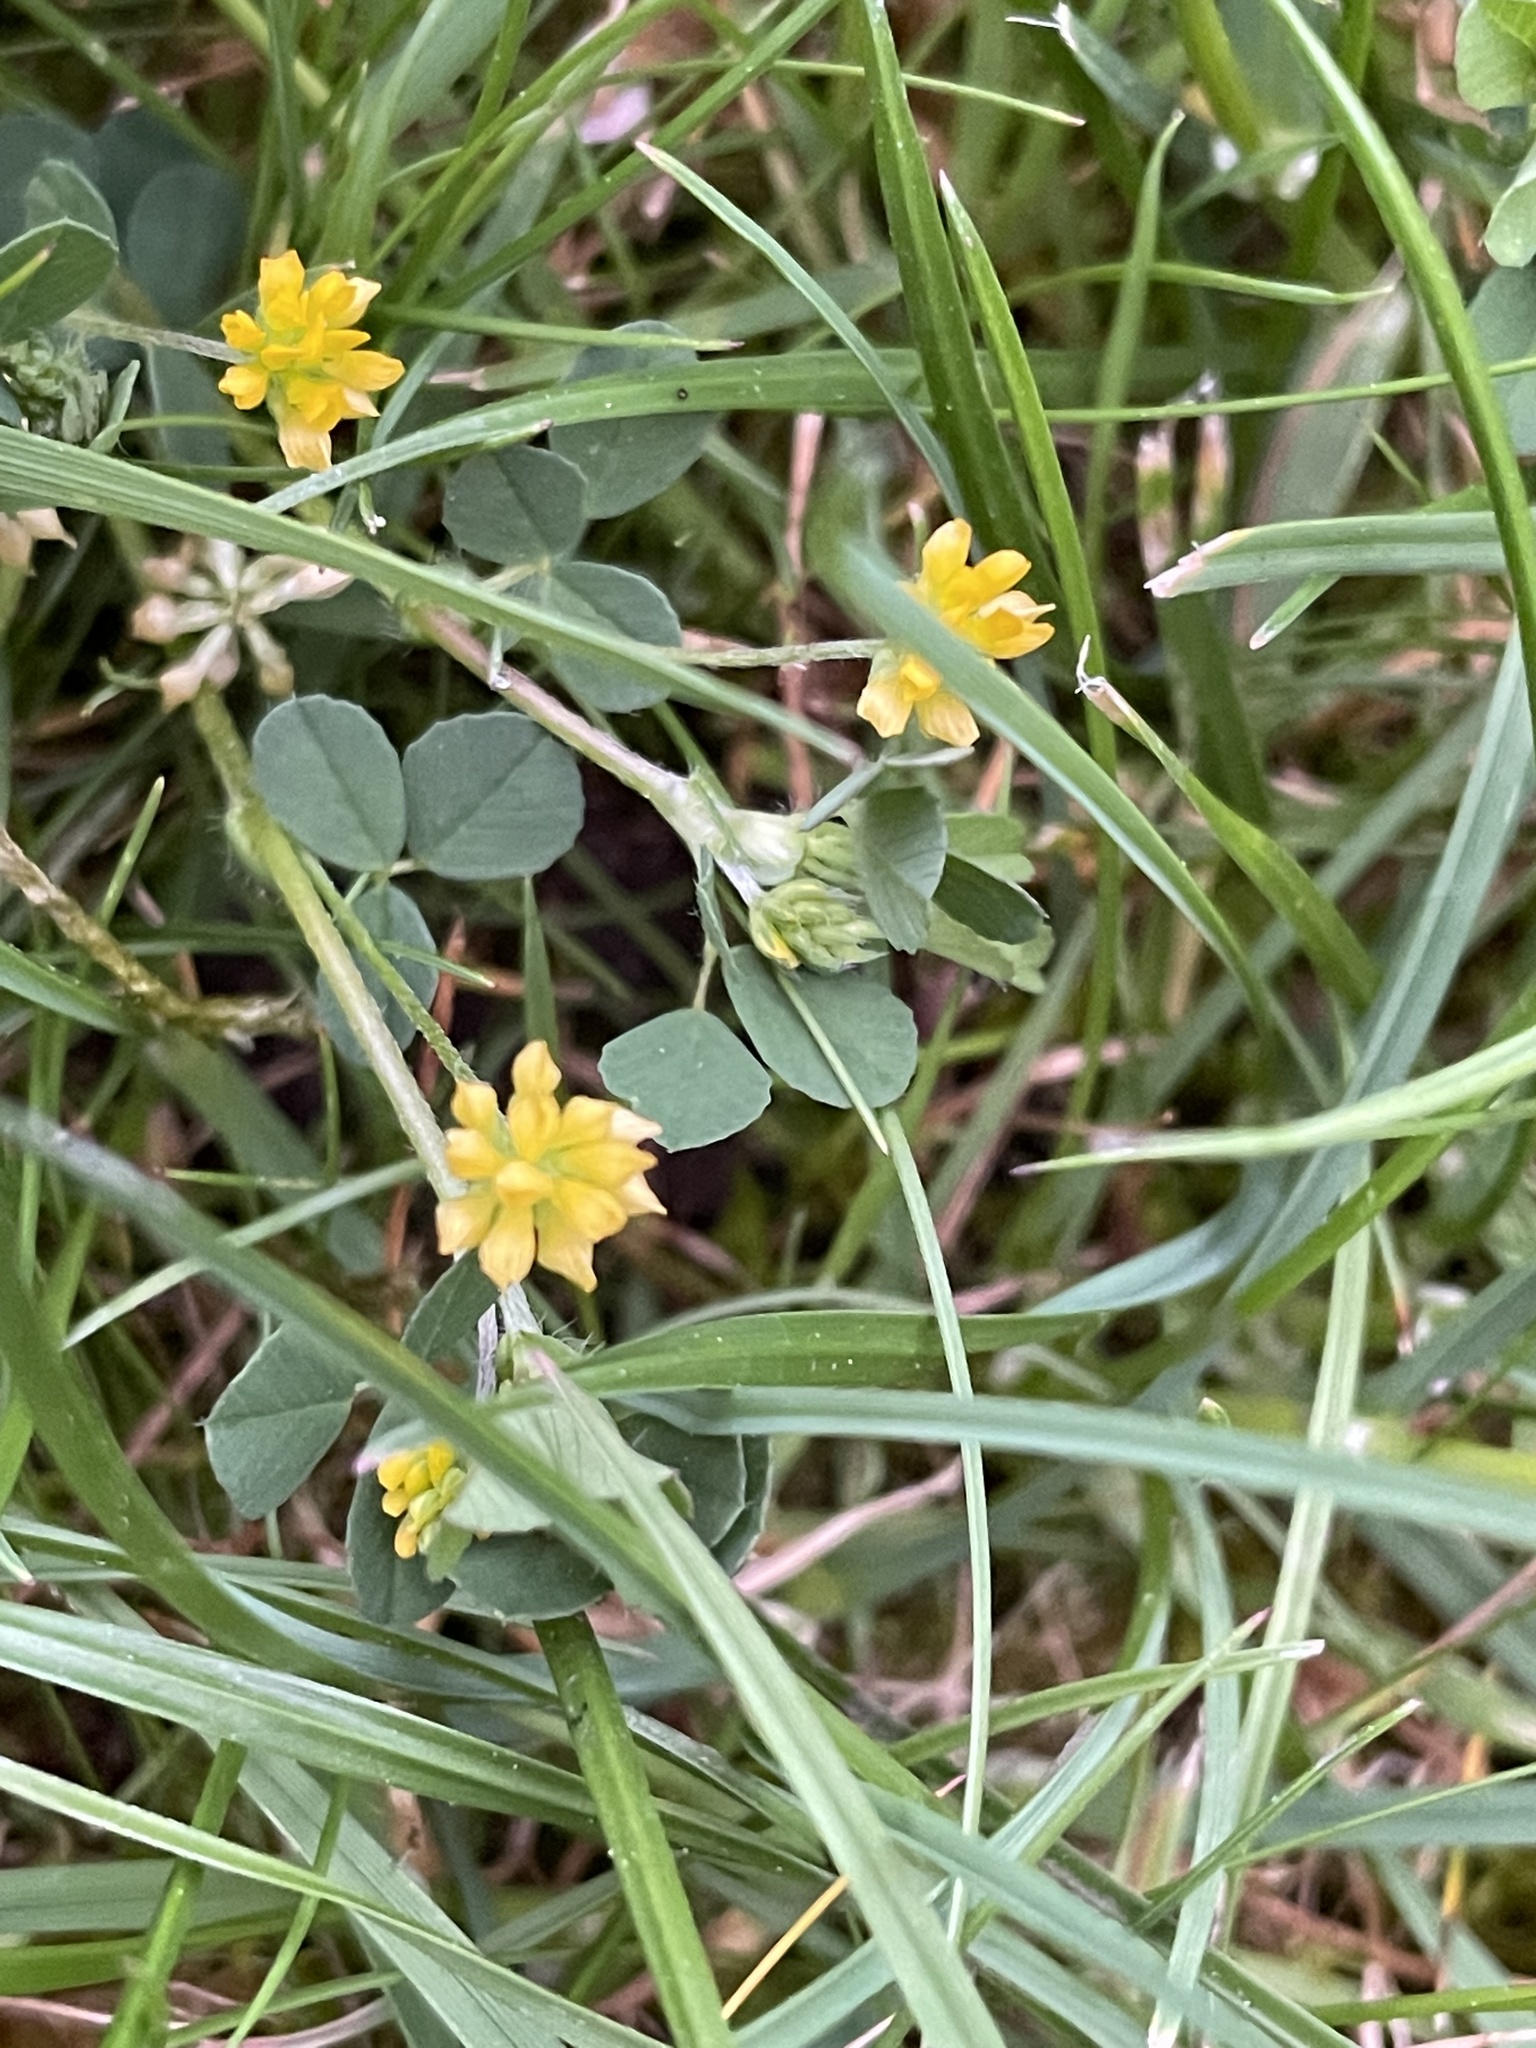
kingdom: Plantae
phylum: Tracheophyta
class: Magnoliopsida
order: Fabales
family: Fabaceae
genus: Trifolium
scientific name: Trifolium dubium
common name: Suckling clover
